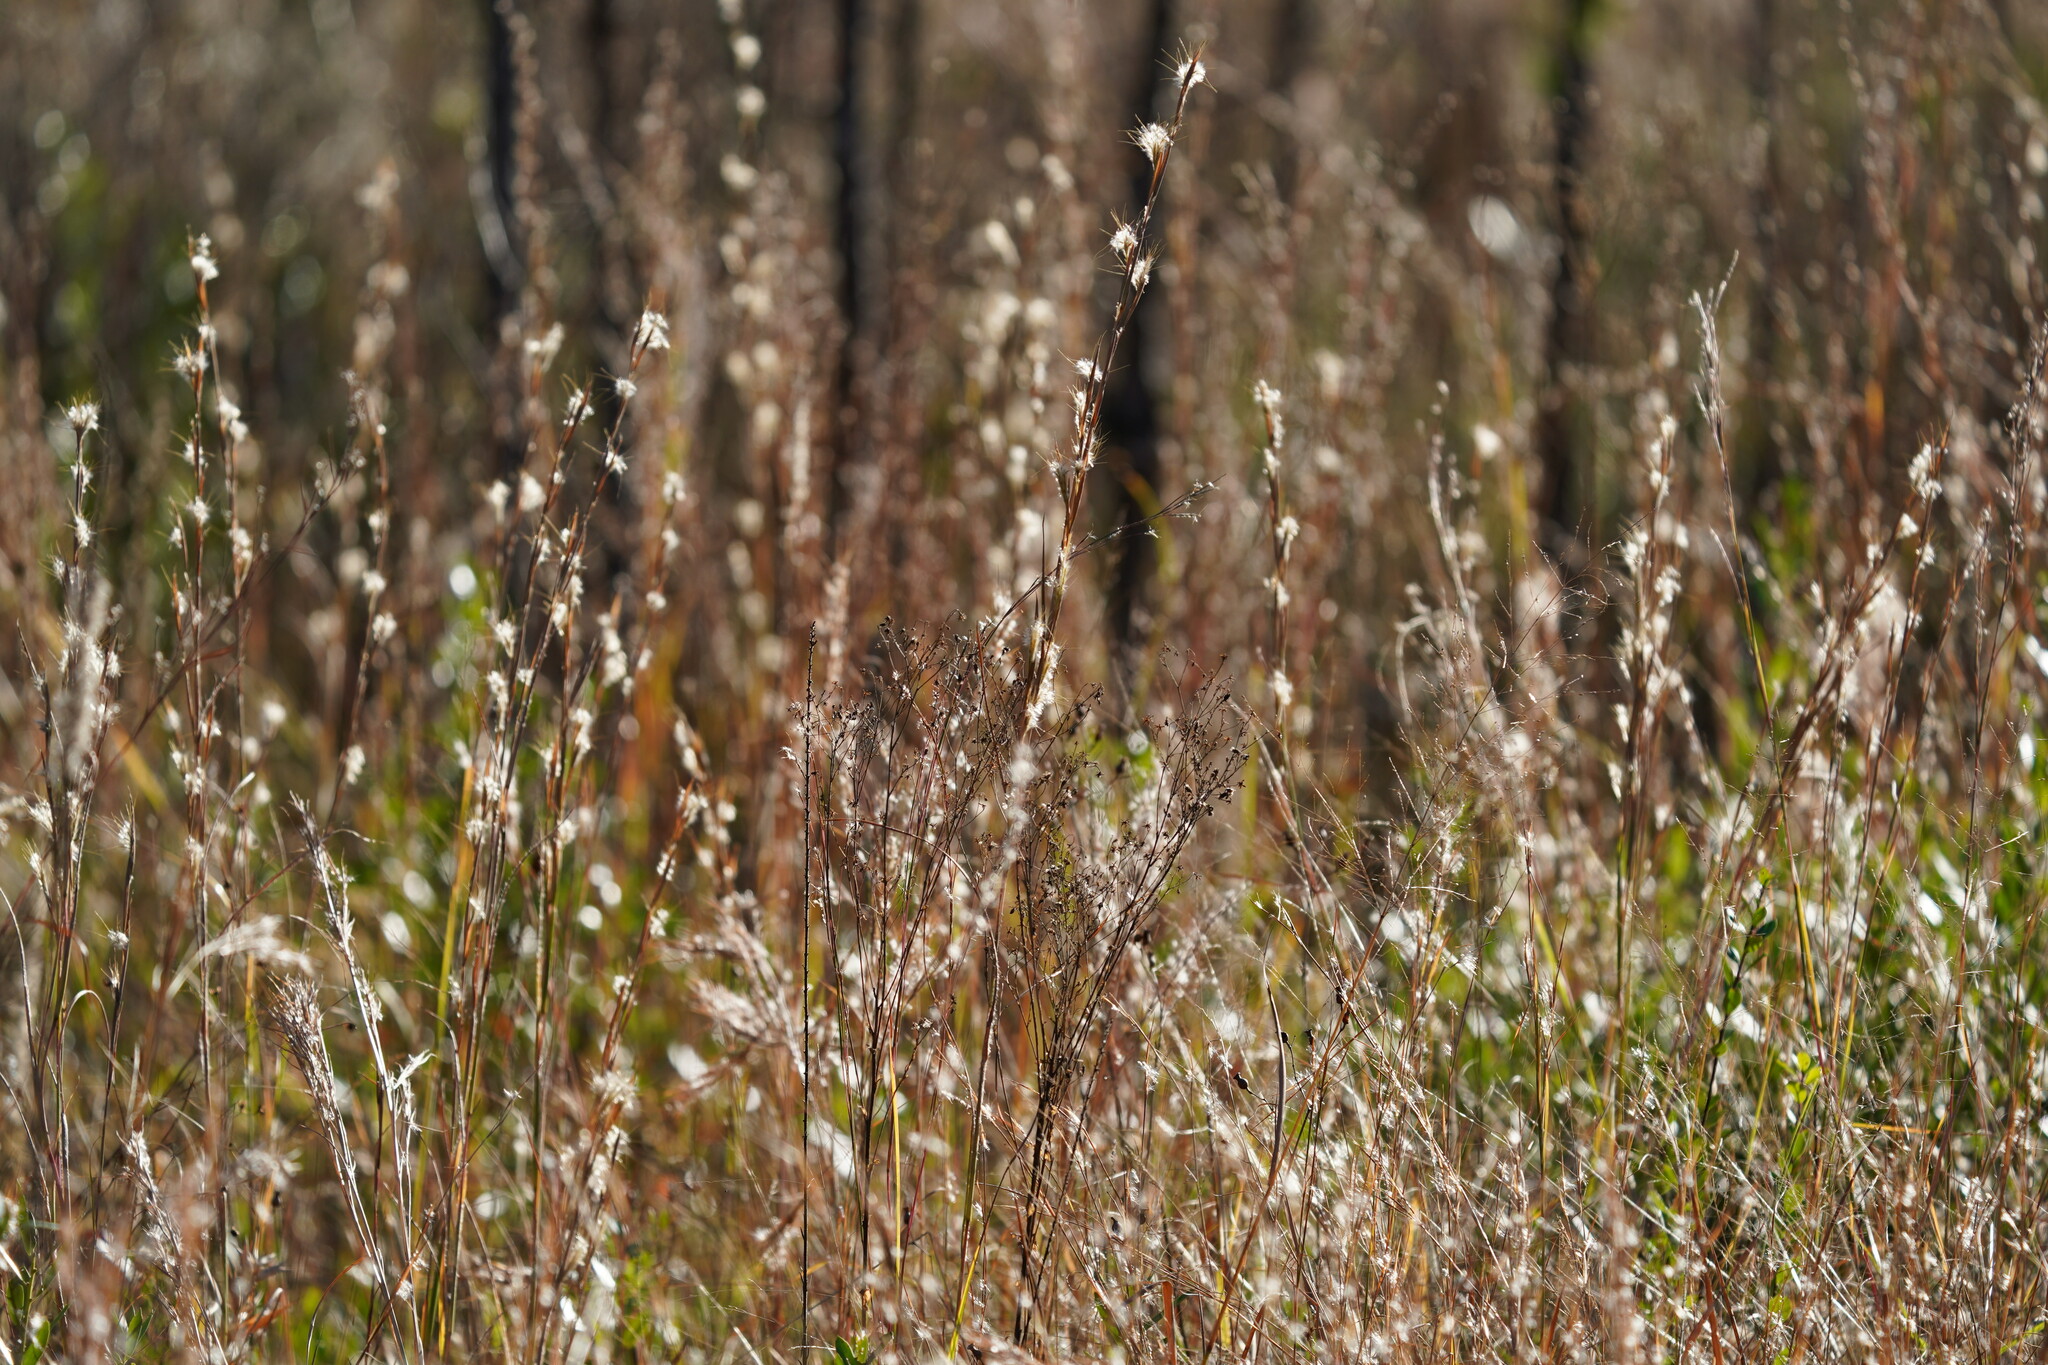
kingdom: Plantae
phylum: Tracheophyta
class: Liliopsida
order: Poales
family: Poaceae
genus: Schizachyrium
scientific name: Schizachyrium scoparium
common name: Little bluestem
